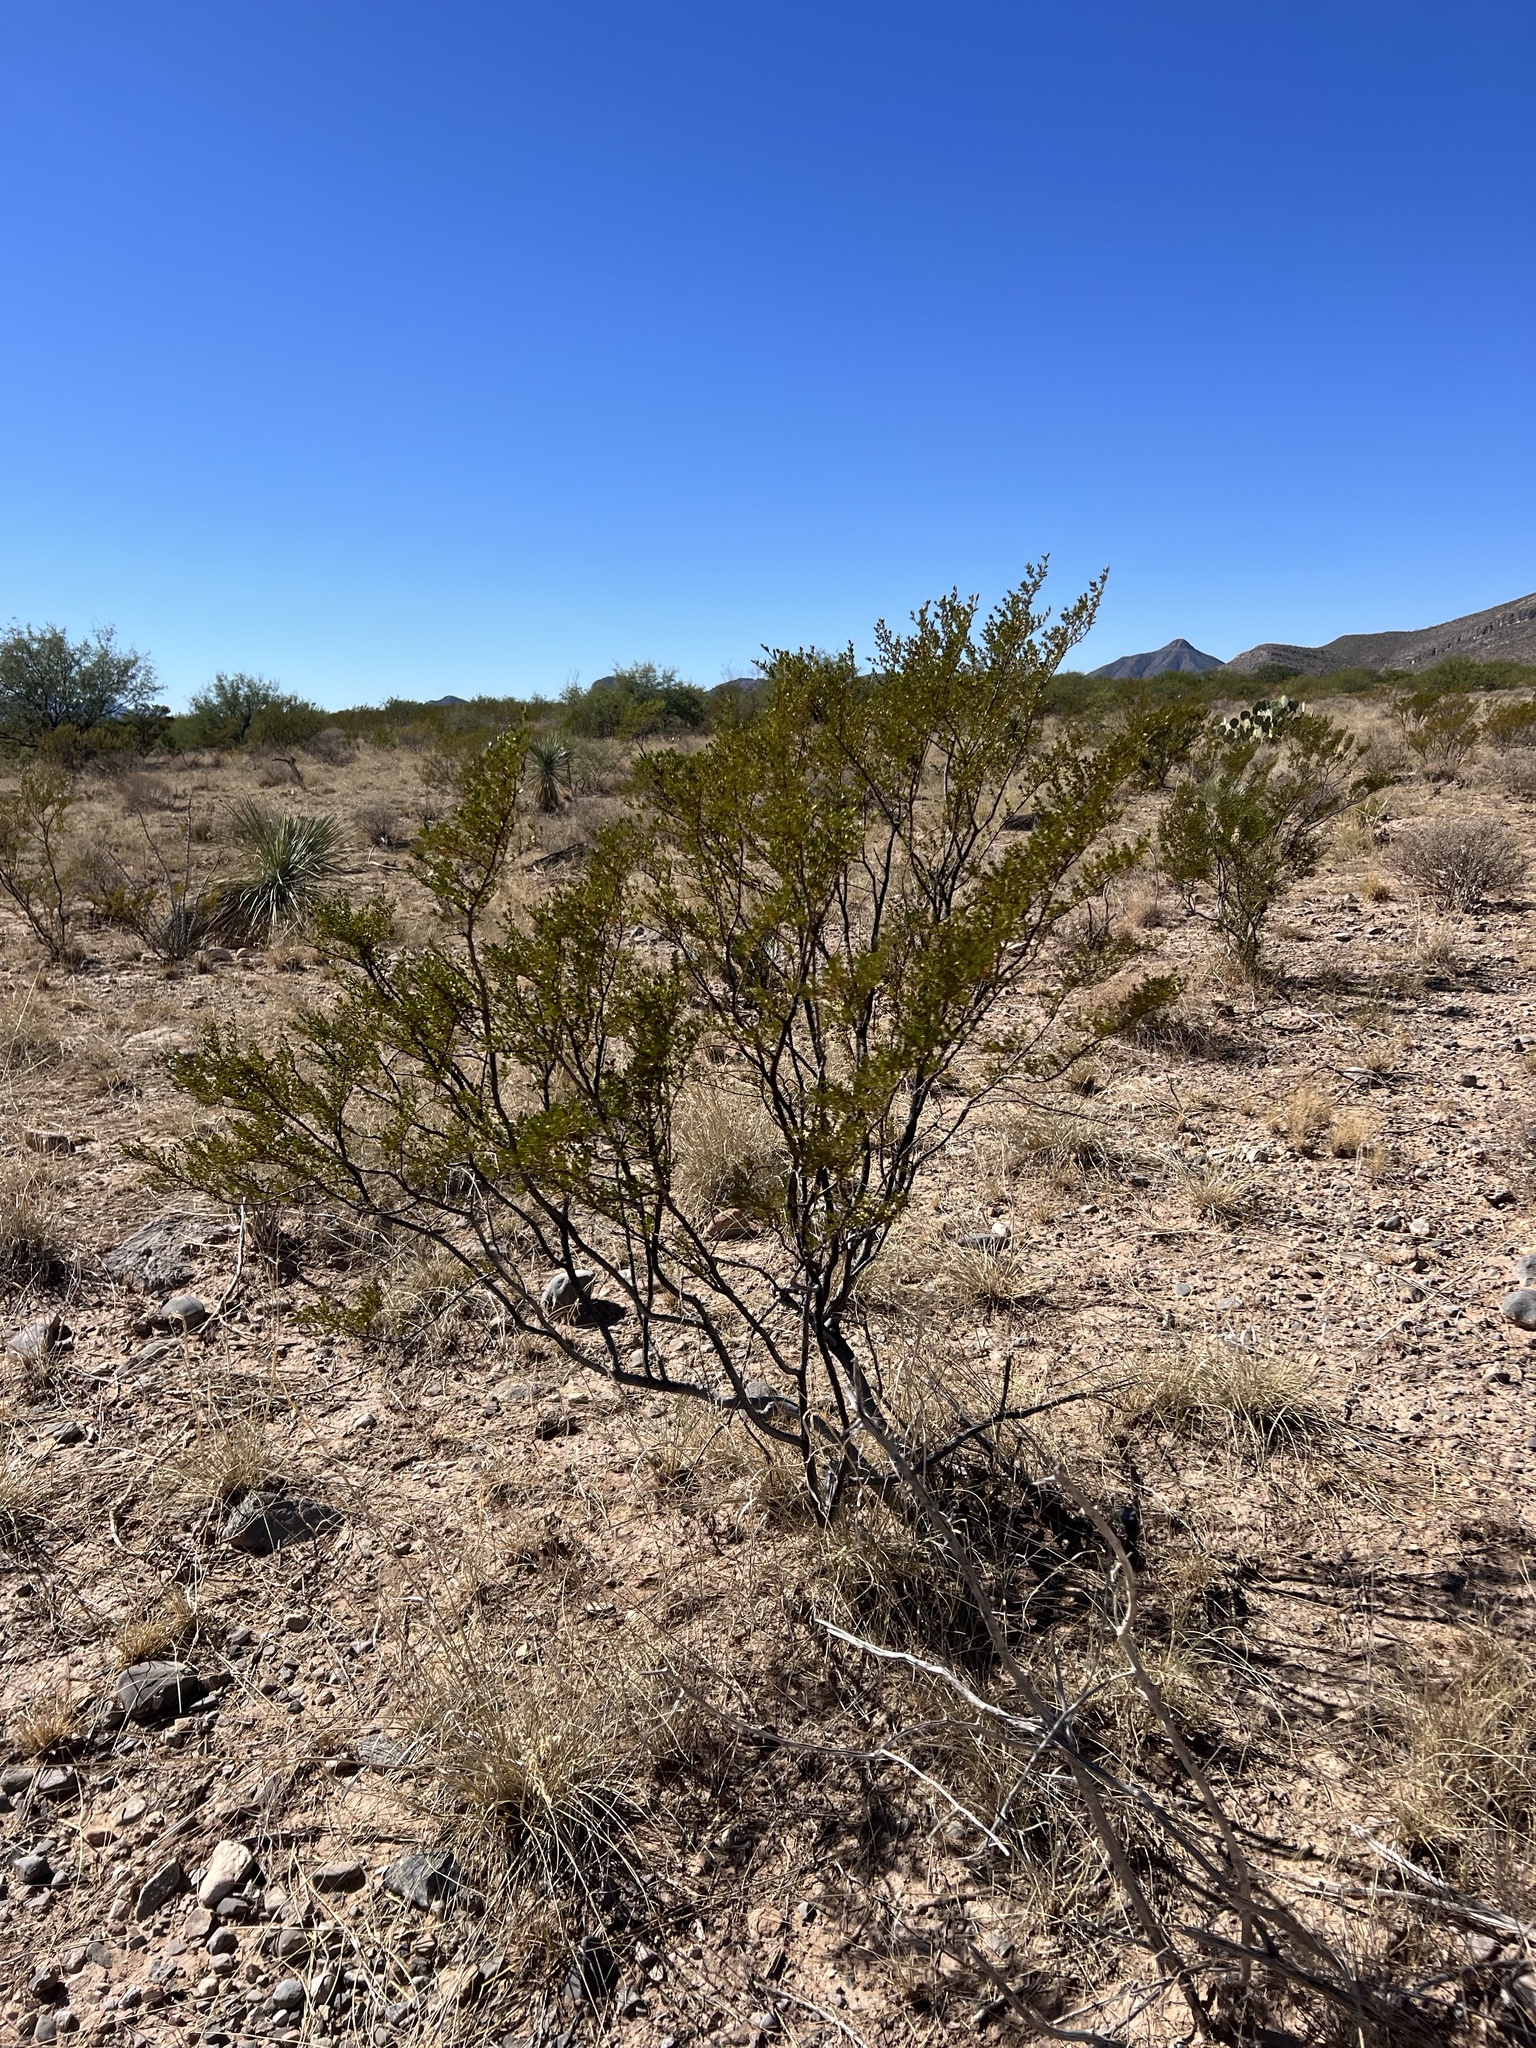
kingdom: Plantae
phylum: Tracheophyta
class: Magnoliopsida
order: Zygophyllales
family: Zygophyllaceae
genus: Larrea
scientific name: Larrea tridentata
